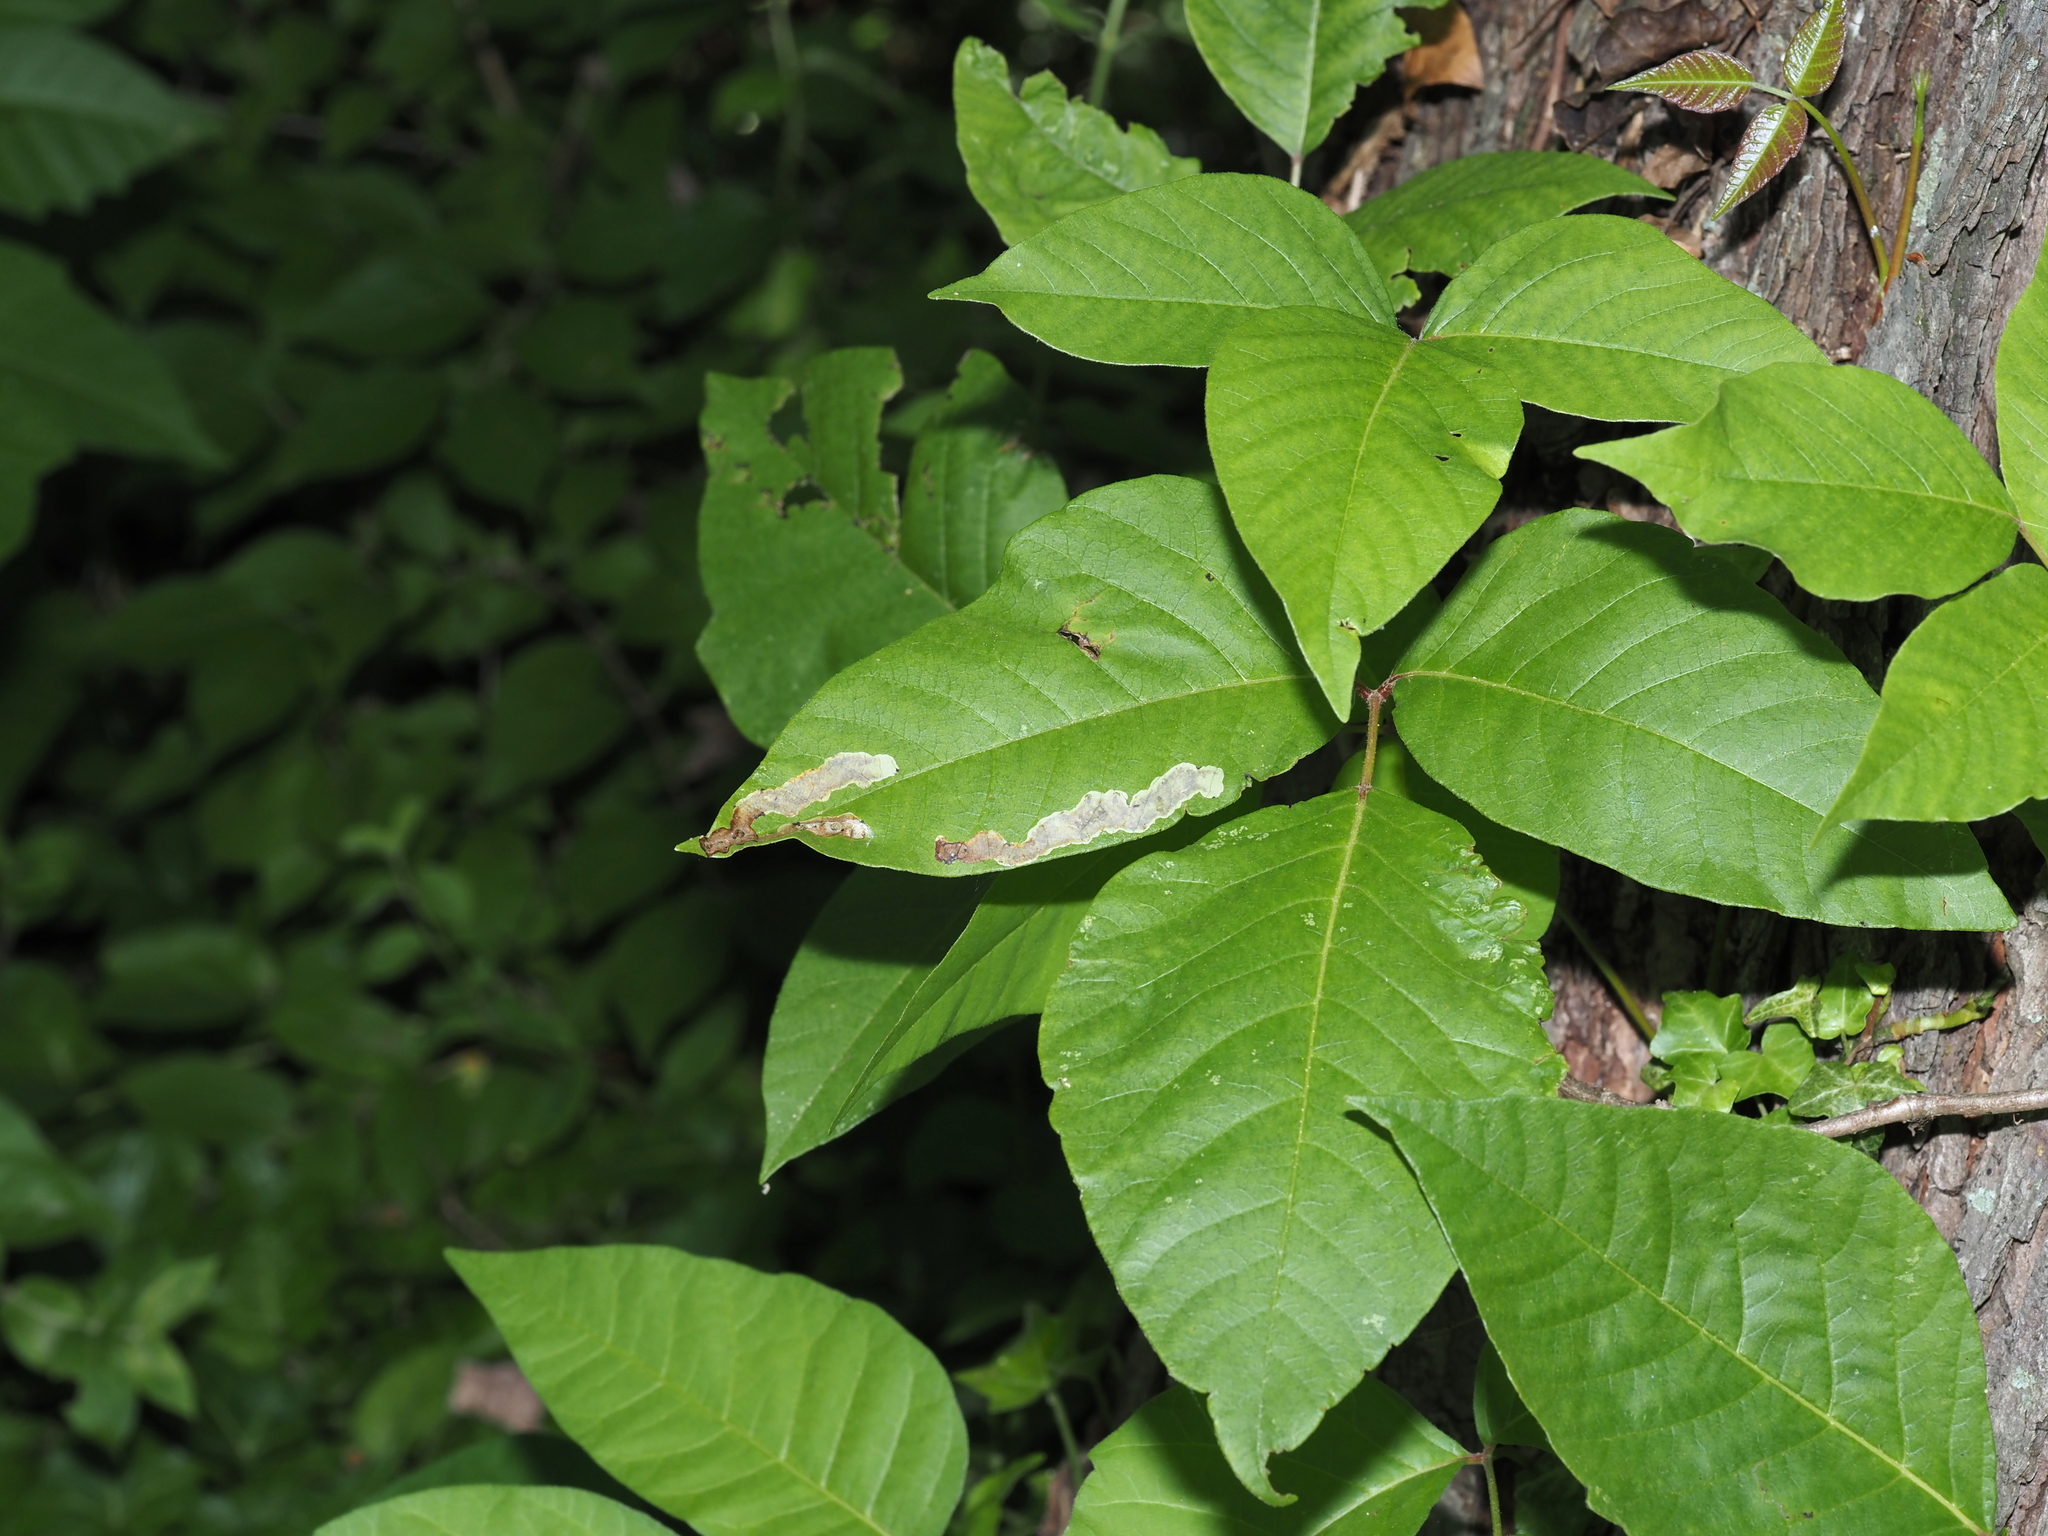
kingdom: Animalia
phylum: Arthropoda
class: Insecta
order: Lepidoptera
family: Gracillariidae
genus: Cameraria
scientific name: Cameraria guttifinitella
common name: Poison ivy leaf-miner moth
